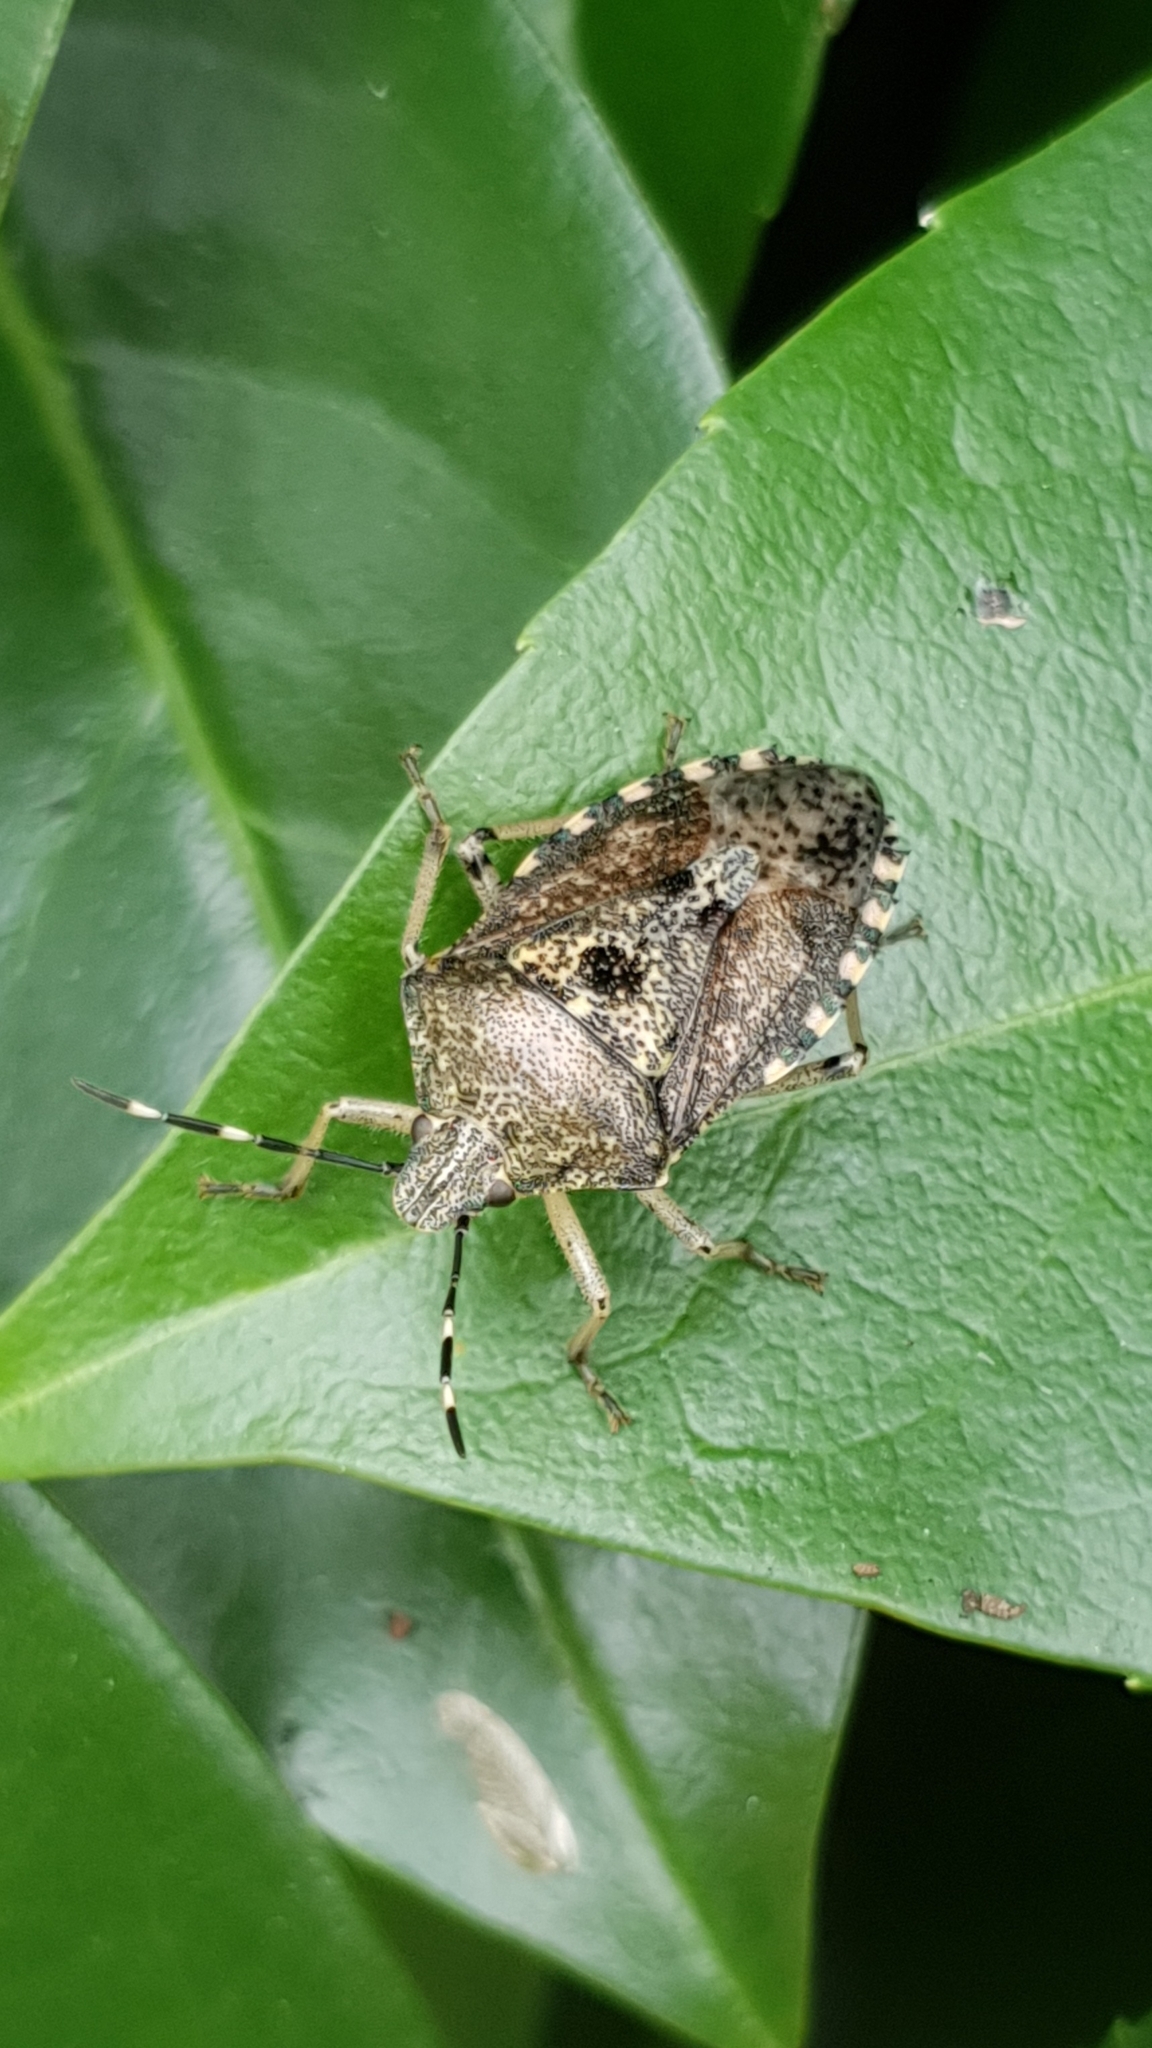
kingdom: Animalia
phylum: Arthropoda
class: Insecta
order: Hemiptera
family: Pentatomidae
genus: Rhaphigaster
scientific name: Rhaphigaster nebulosa
